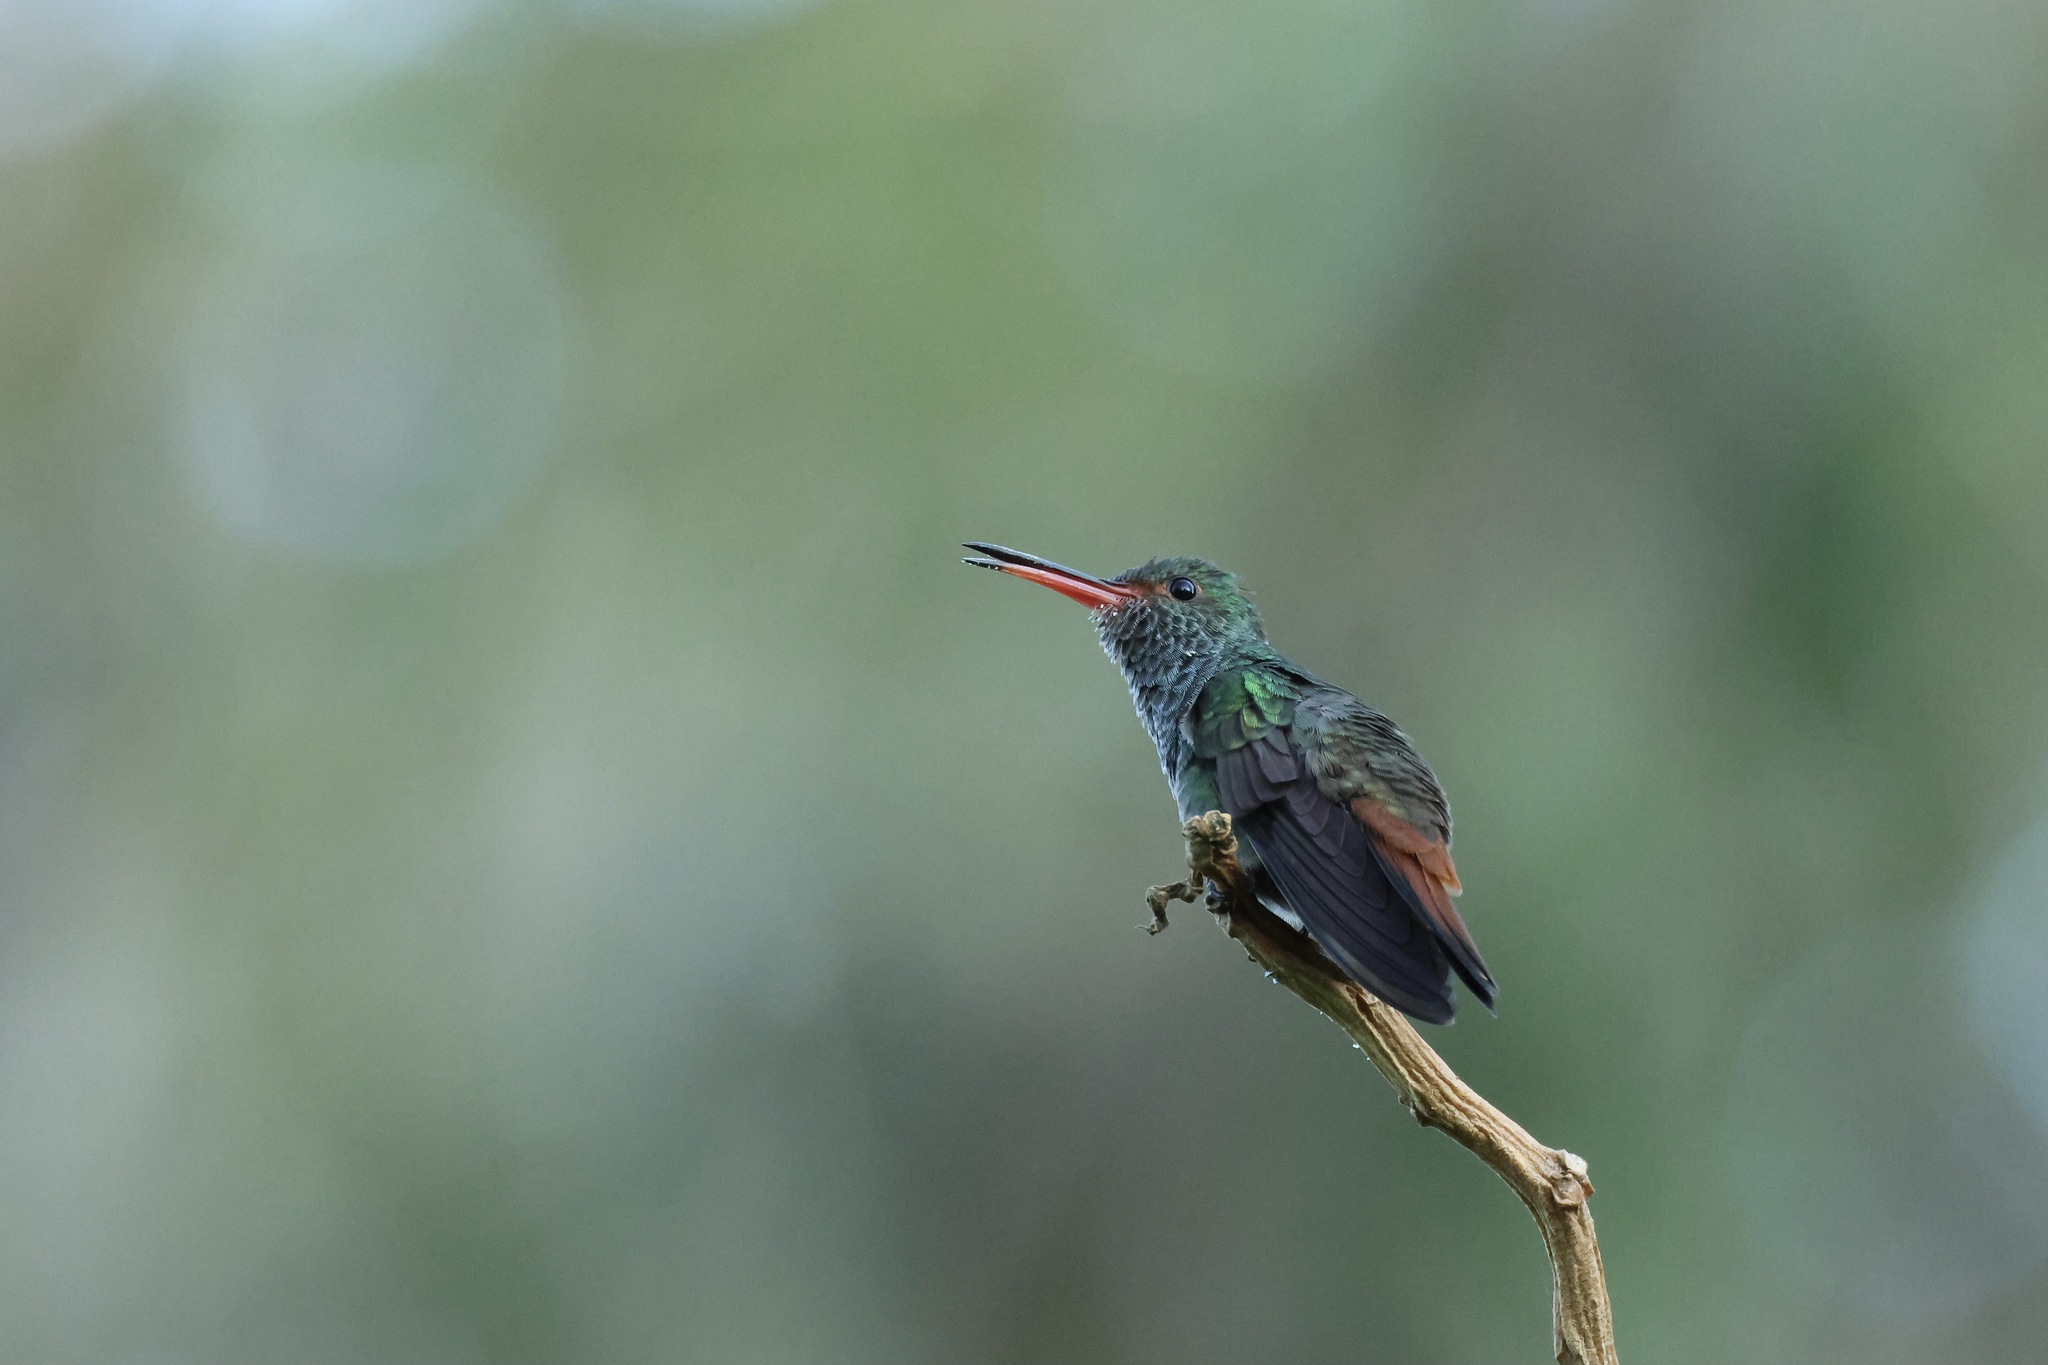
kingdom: Animalia
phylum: Chordata
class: Aves
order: Apodiformes
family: Trochilidae
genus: Amazilia
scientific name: Amazilia tzacatl
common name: Rufous-tailed hummingbird
